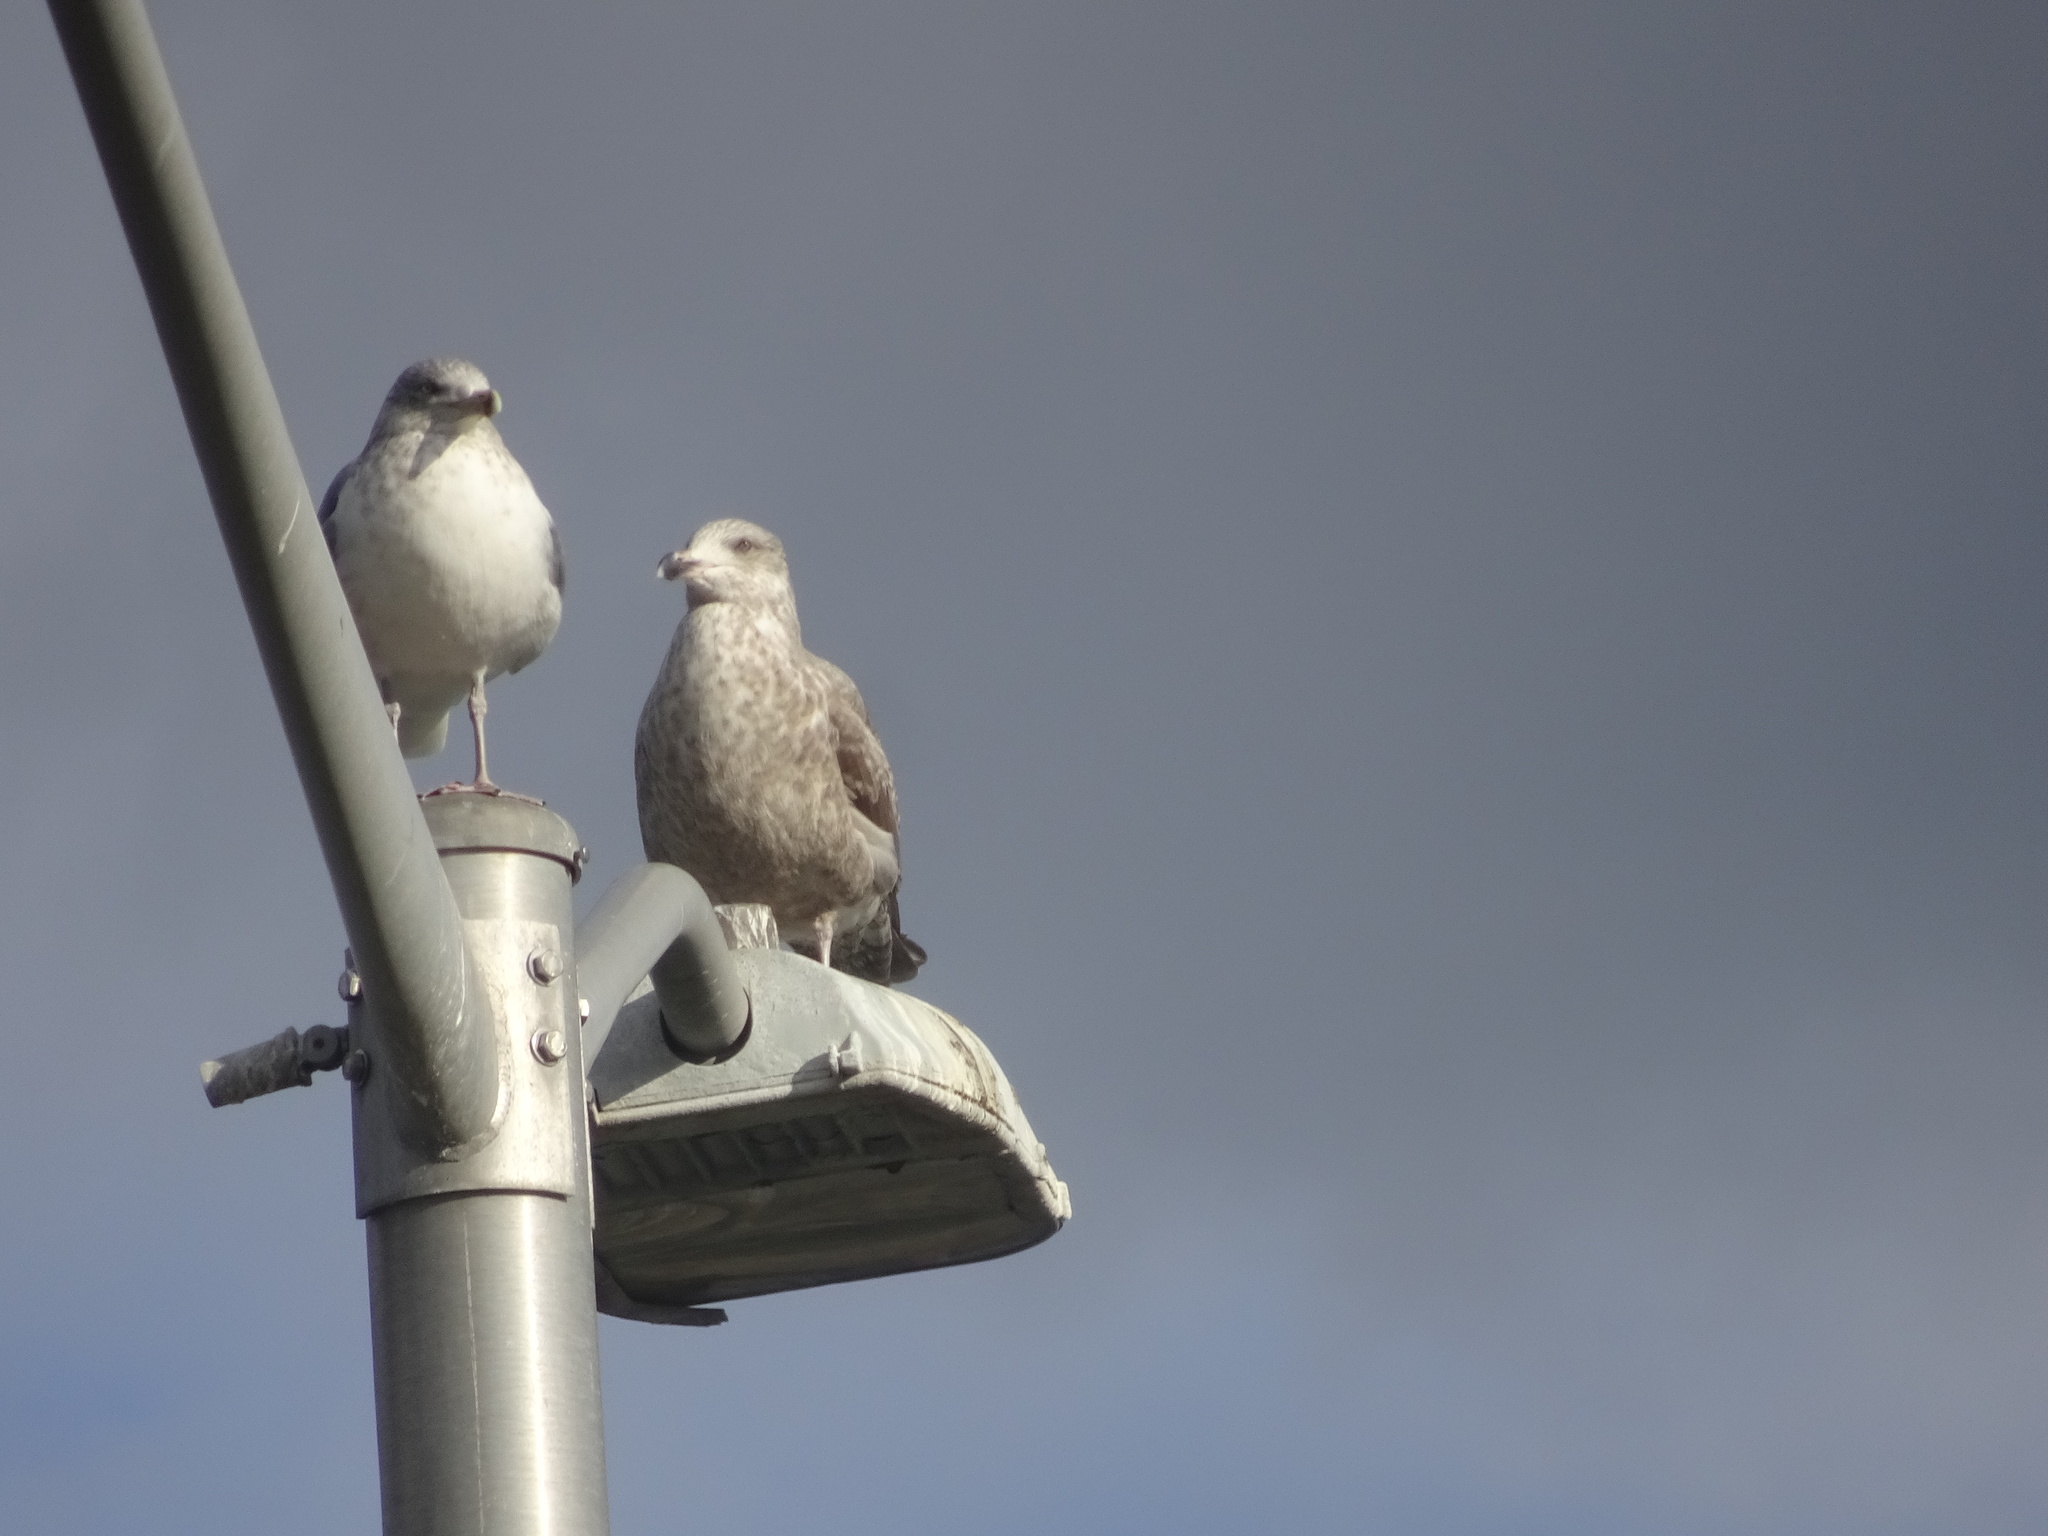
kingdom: Animalia
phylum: Chordata
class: Aves
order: Charadriiformes
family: Laridae
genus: Larus
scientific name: Larus delawarensis
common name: Ring-billed gull
